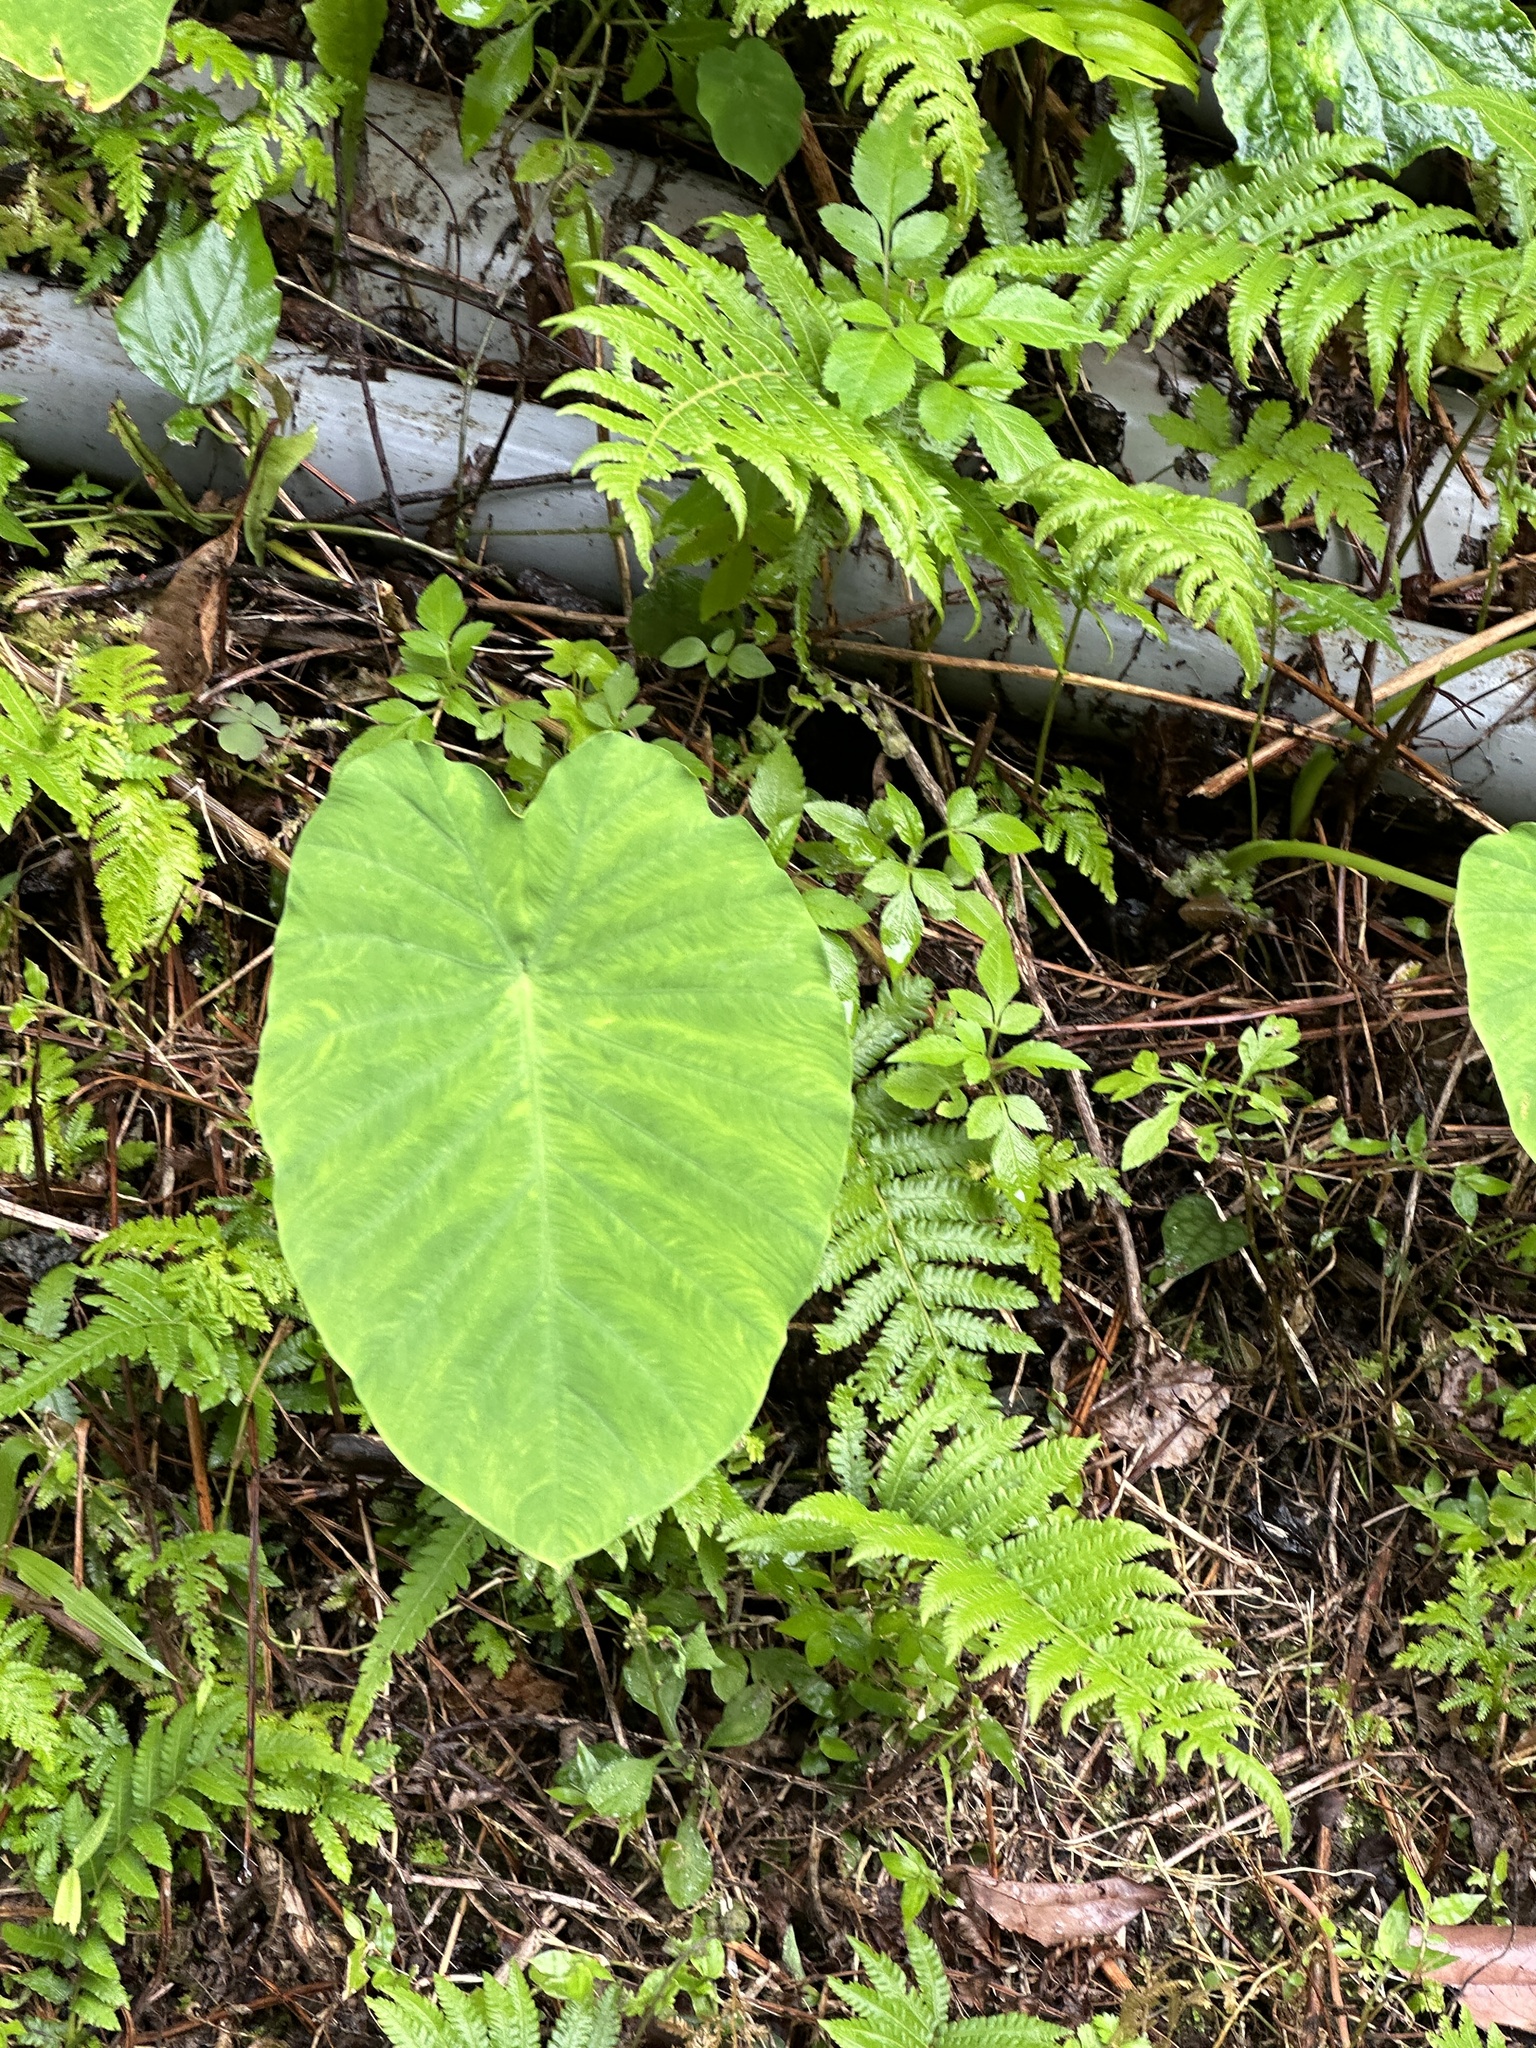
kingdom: Plantae
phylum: Tracheophyta
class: Liliopsida
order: Alismatales
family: Araceae
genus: Colocasia
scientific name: Colocasia esculenta
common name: Taro
